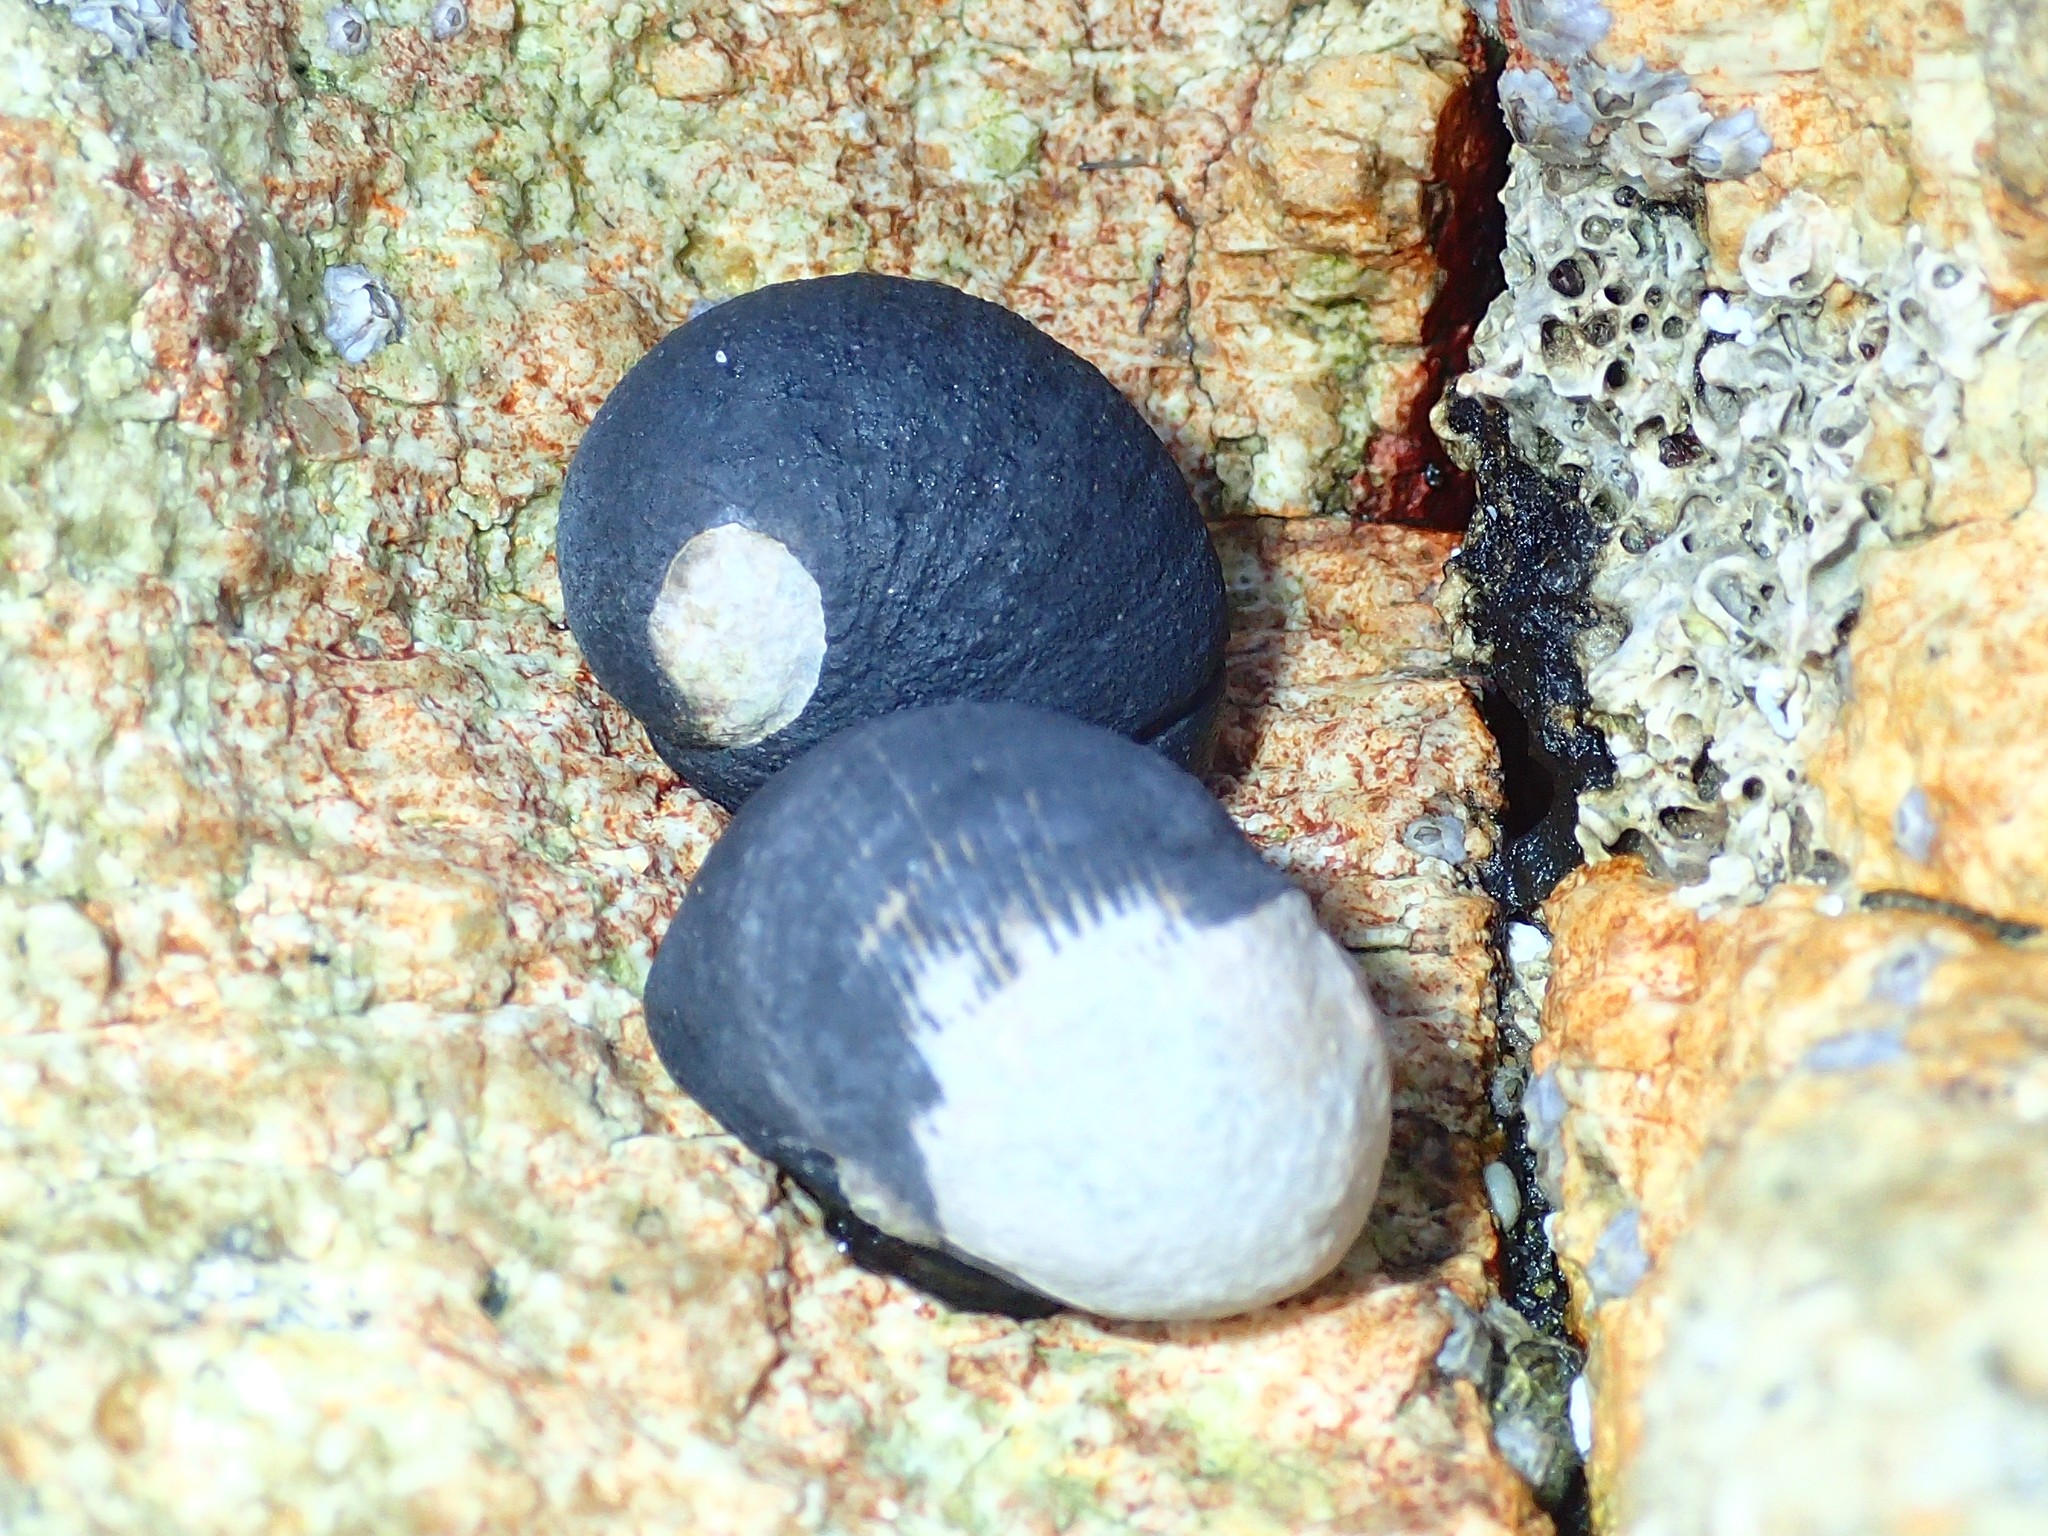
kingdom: Animalia
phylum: Mollusca
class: Gastropoda
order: Cycloneritida
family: Neritidae
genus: Nerita
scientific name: Nerita melanotragus
